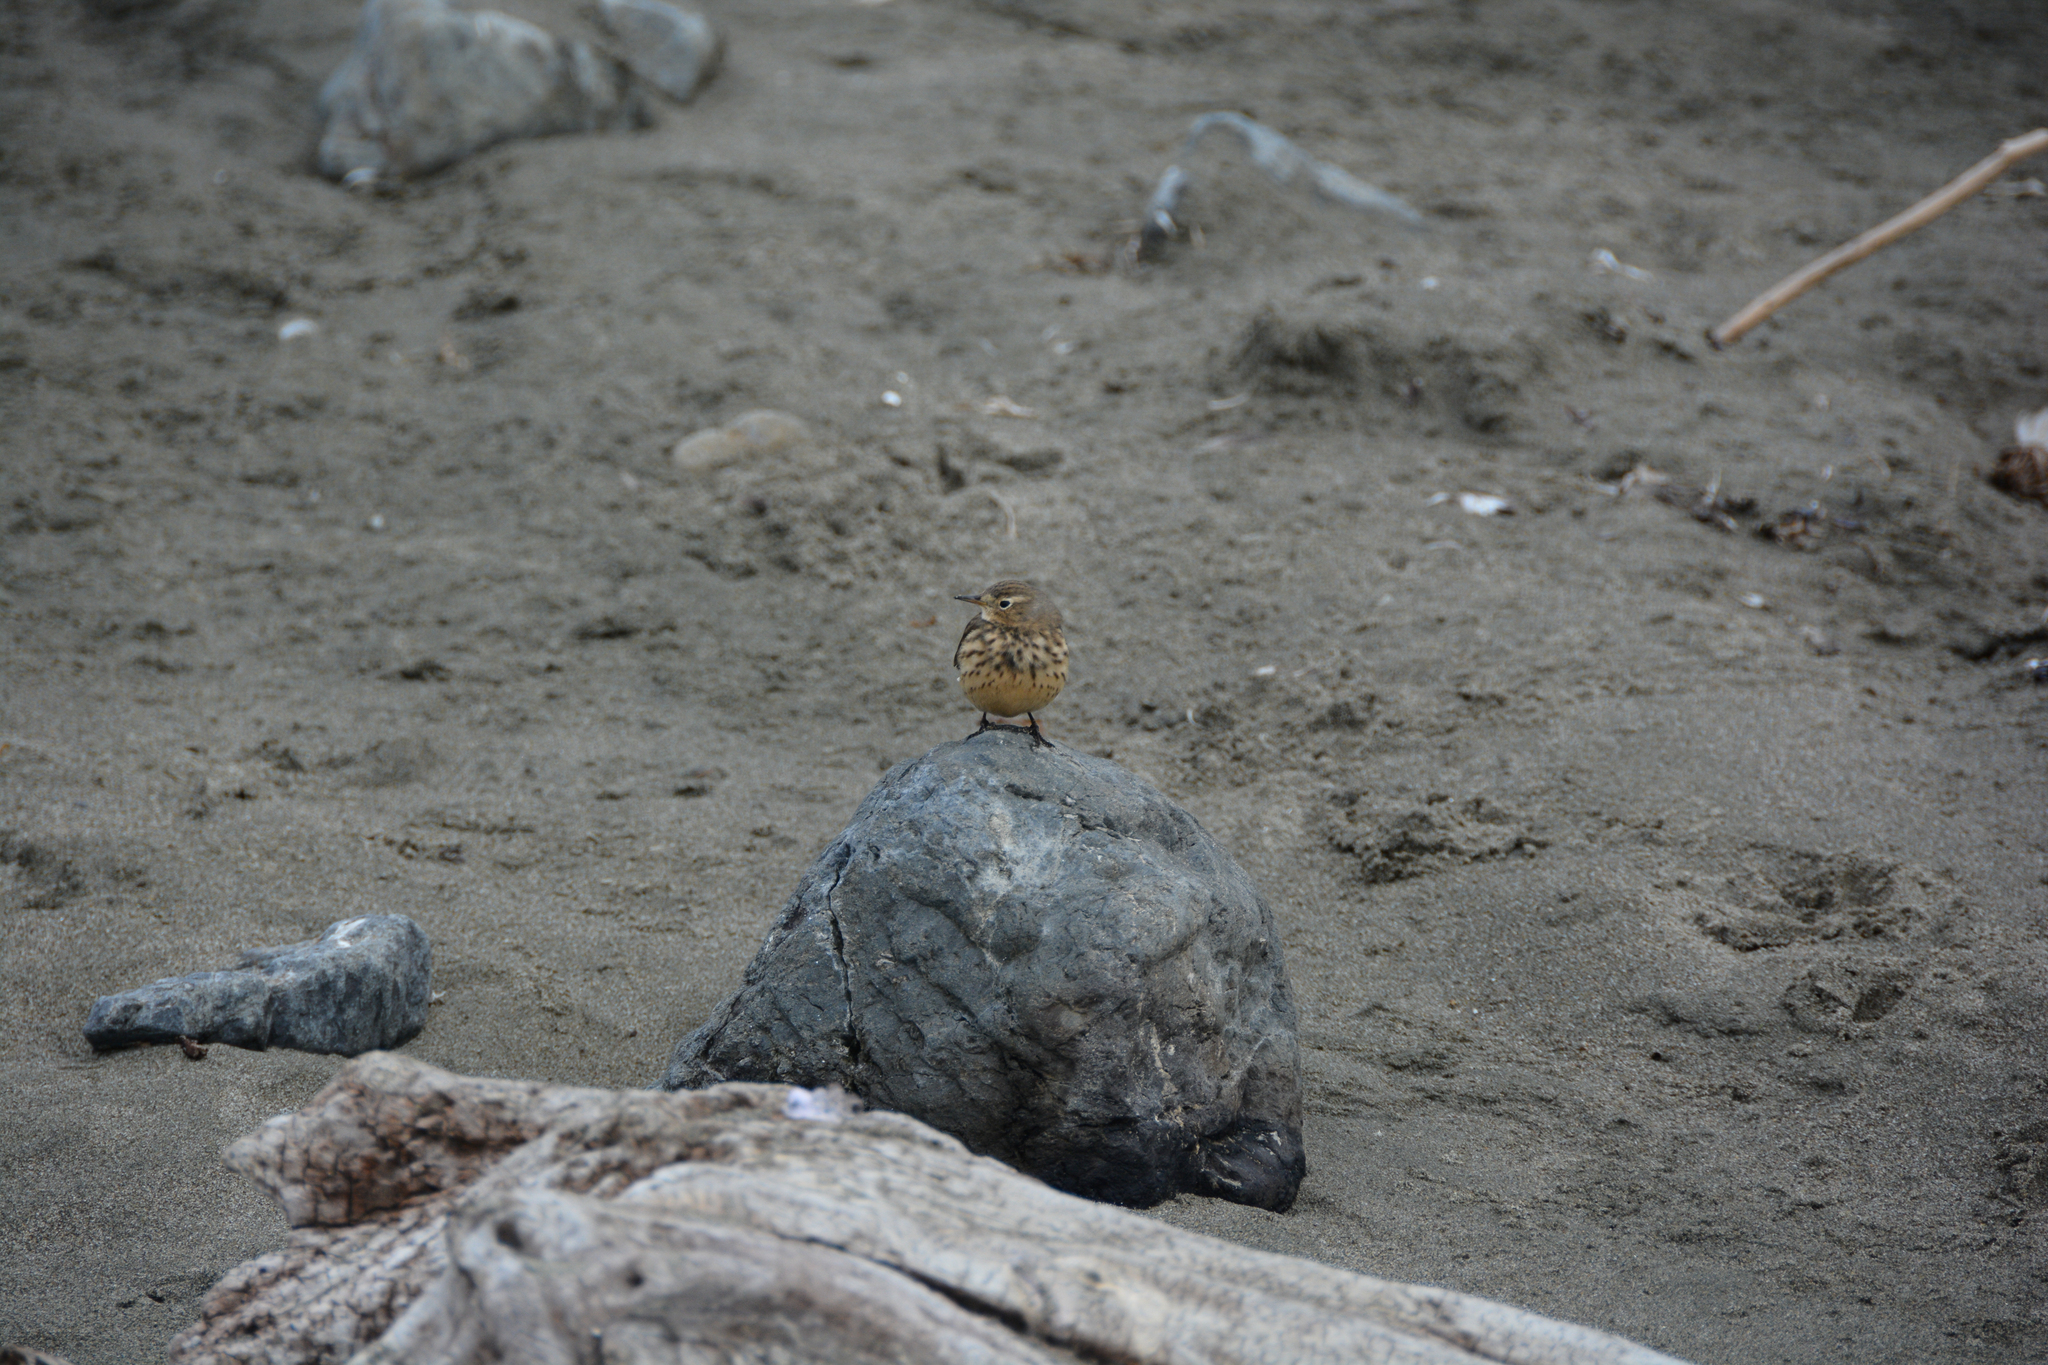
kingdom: Animalia
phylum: Chordata
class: Aves
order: Passeriformes
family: Motacillidae
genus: Anthus
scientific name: Anthus rubescens
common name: Buff-bellied pipit
